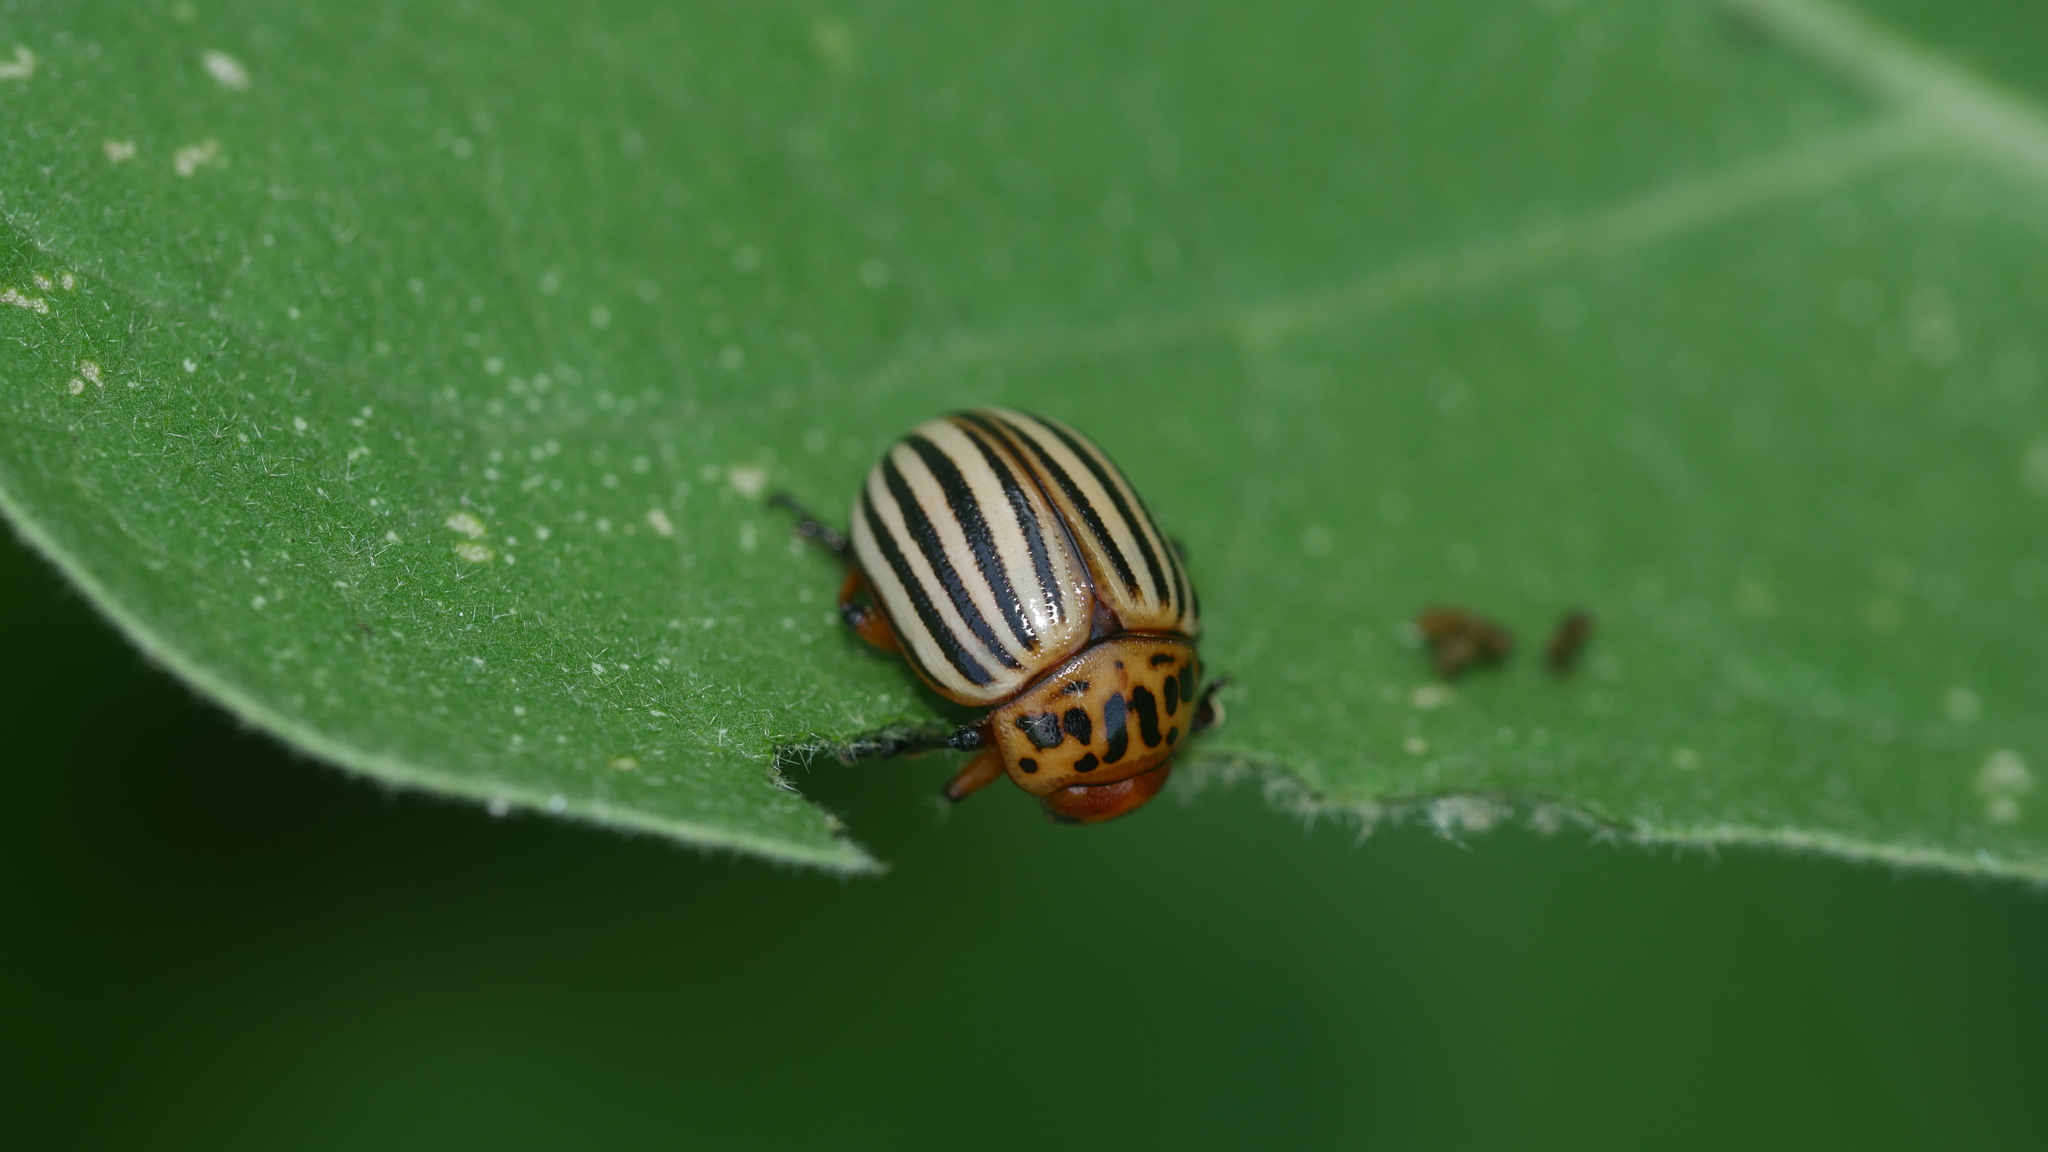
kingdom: Animalia
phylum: Arthropoda
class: Insecta
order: Coleoptera
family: Chrysomelidae
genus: Leptinotarsa
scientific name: Leptinotarsa decemlineata
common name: Colorado potato beetle
